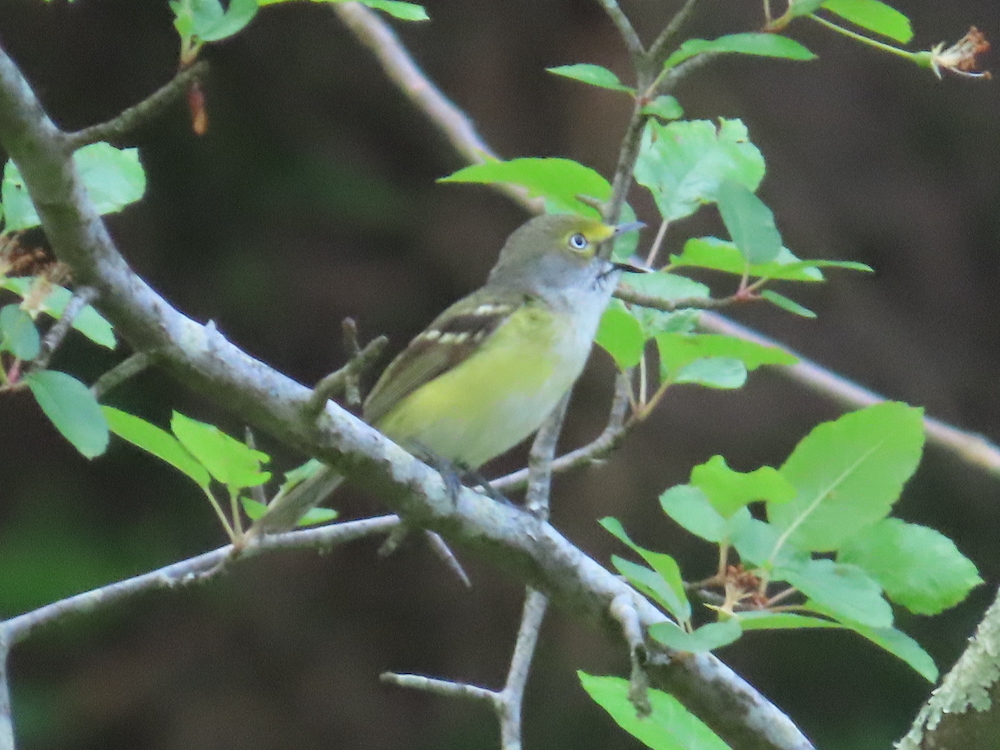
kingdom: Animalia
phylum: Chordata
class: Aves
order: Passeriformes
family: Vireonidae
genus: Vireo
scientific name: Vireo griseus
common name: White-eyed vireo
